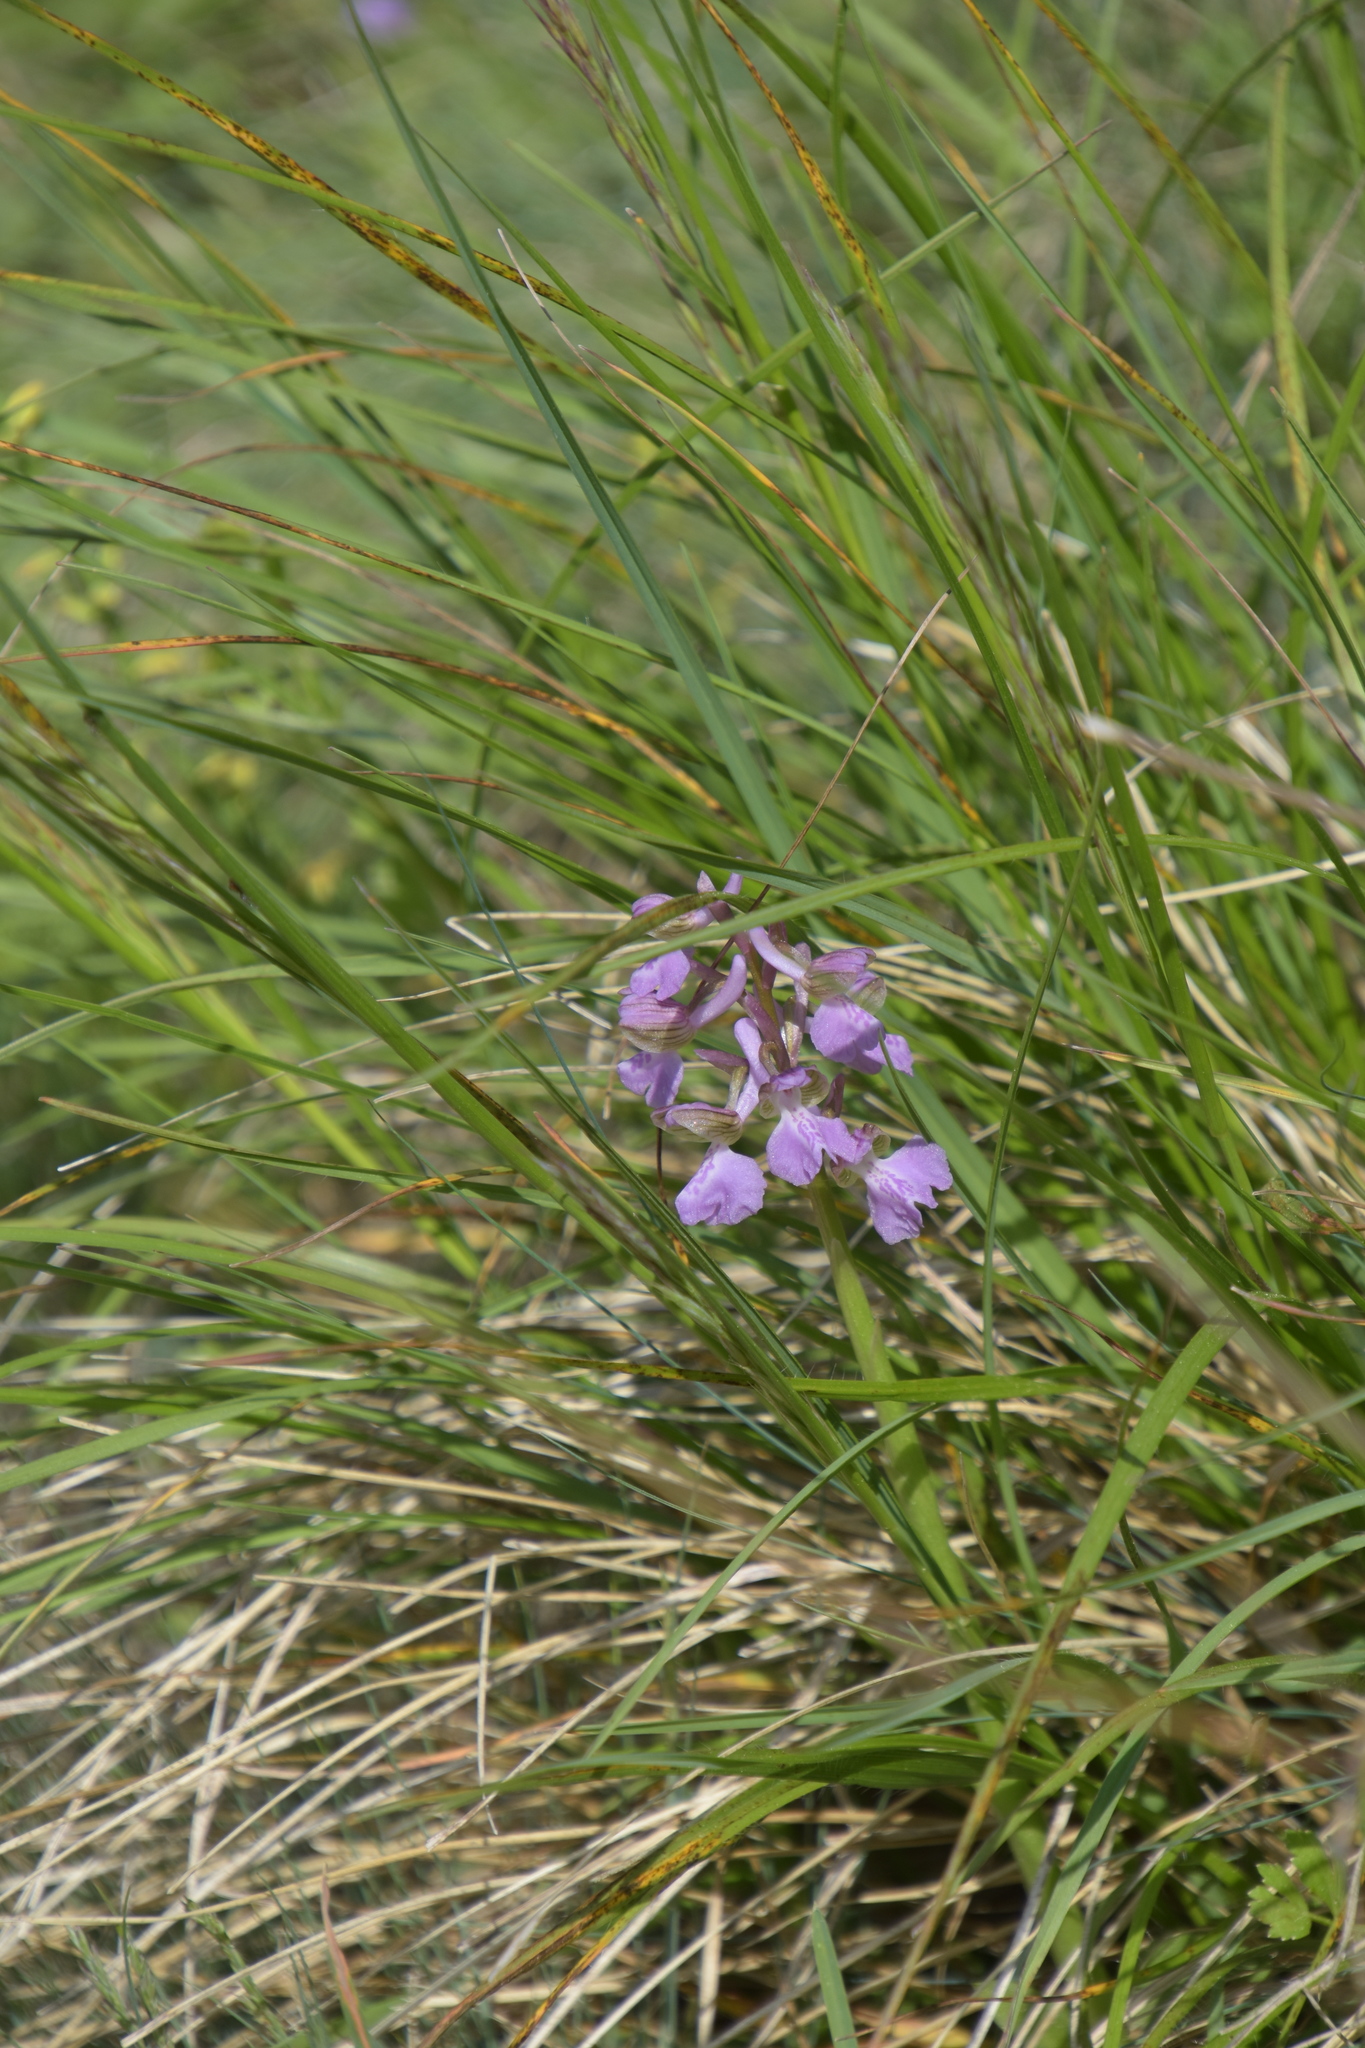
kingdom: Plantae
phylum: Tracheophyta
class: Liliopsida
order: Asparagales
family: Orchidaceae
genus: Anacamptis
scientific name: Anacamptis morio
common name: Green-winged orchid
